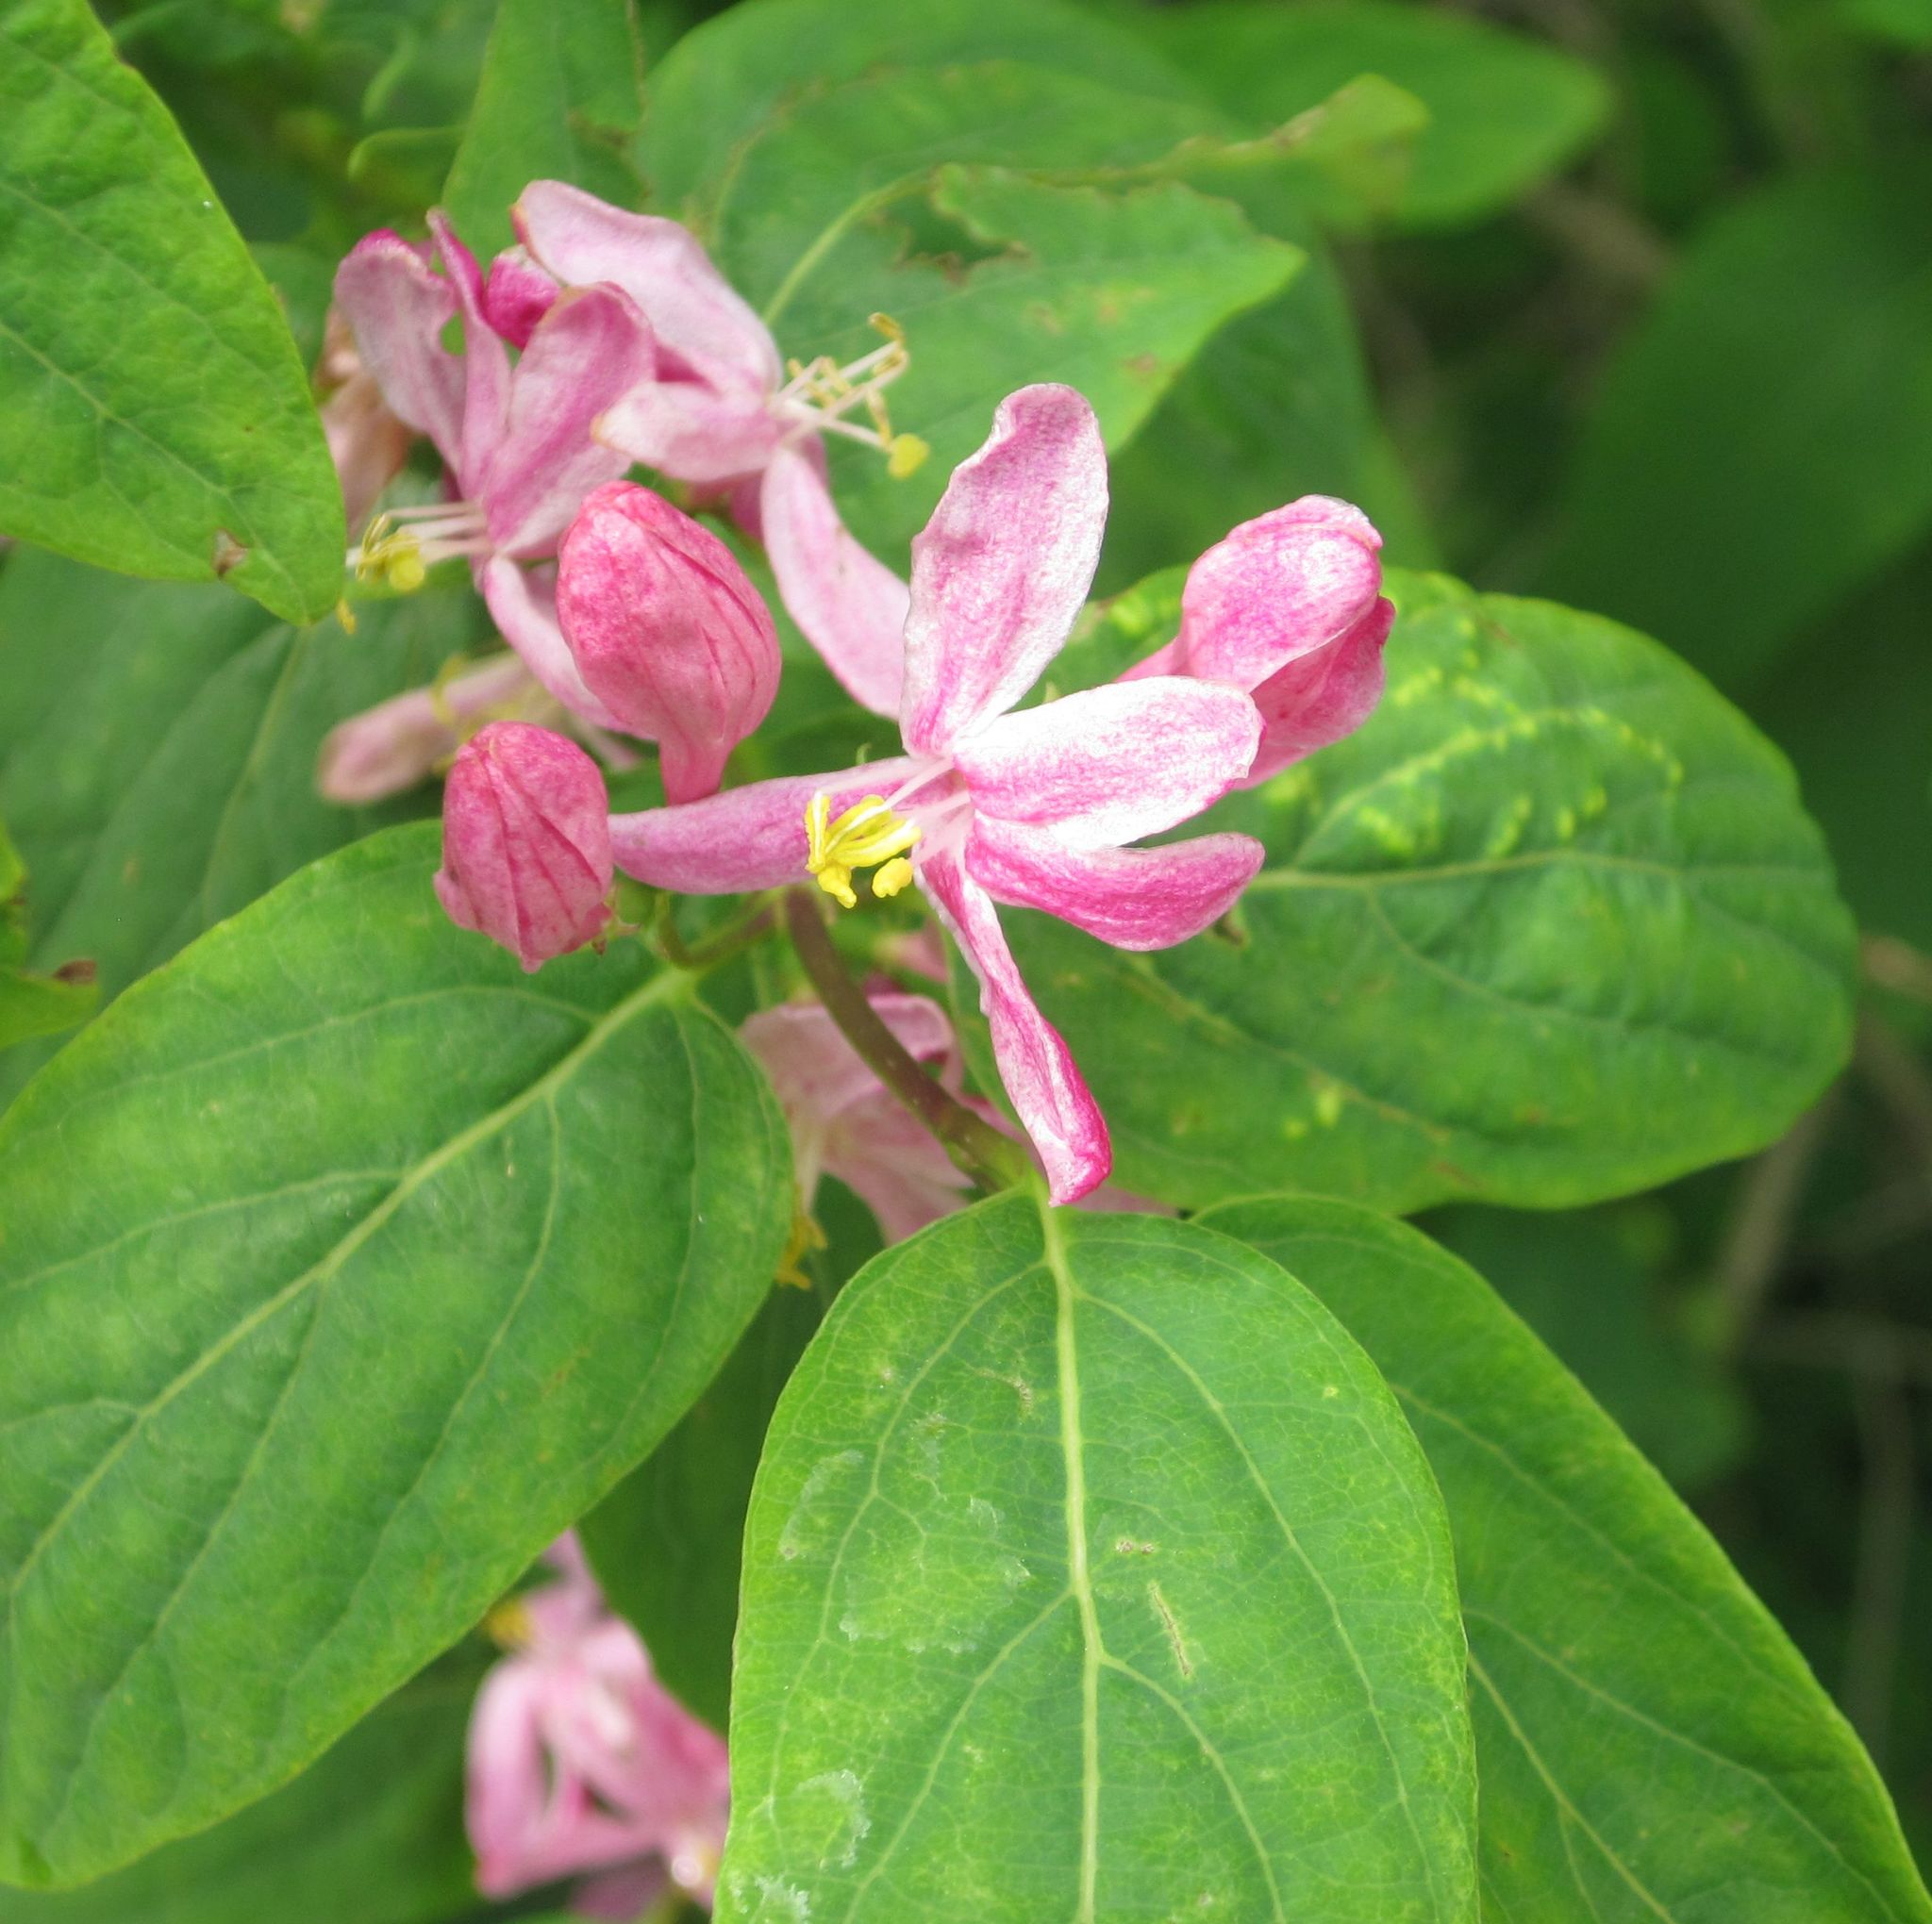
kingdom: Plantae
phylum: Tracheophyta
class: Magnoliopsida
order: Dipsacales
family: Caprifoliaceae
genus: Lonicera
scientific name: Lonicera tatarica
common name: Tatarian honeysuckle
